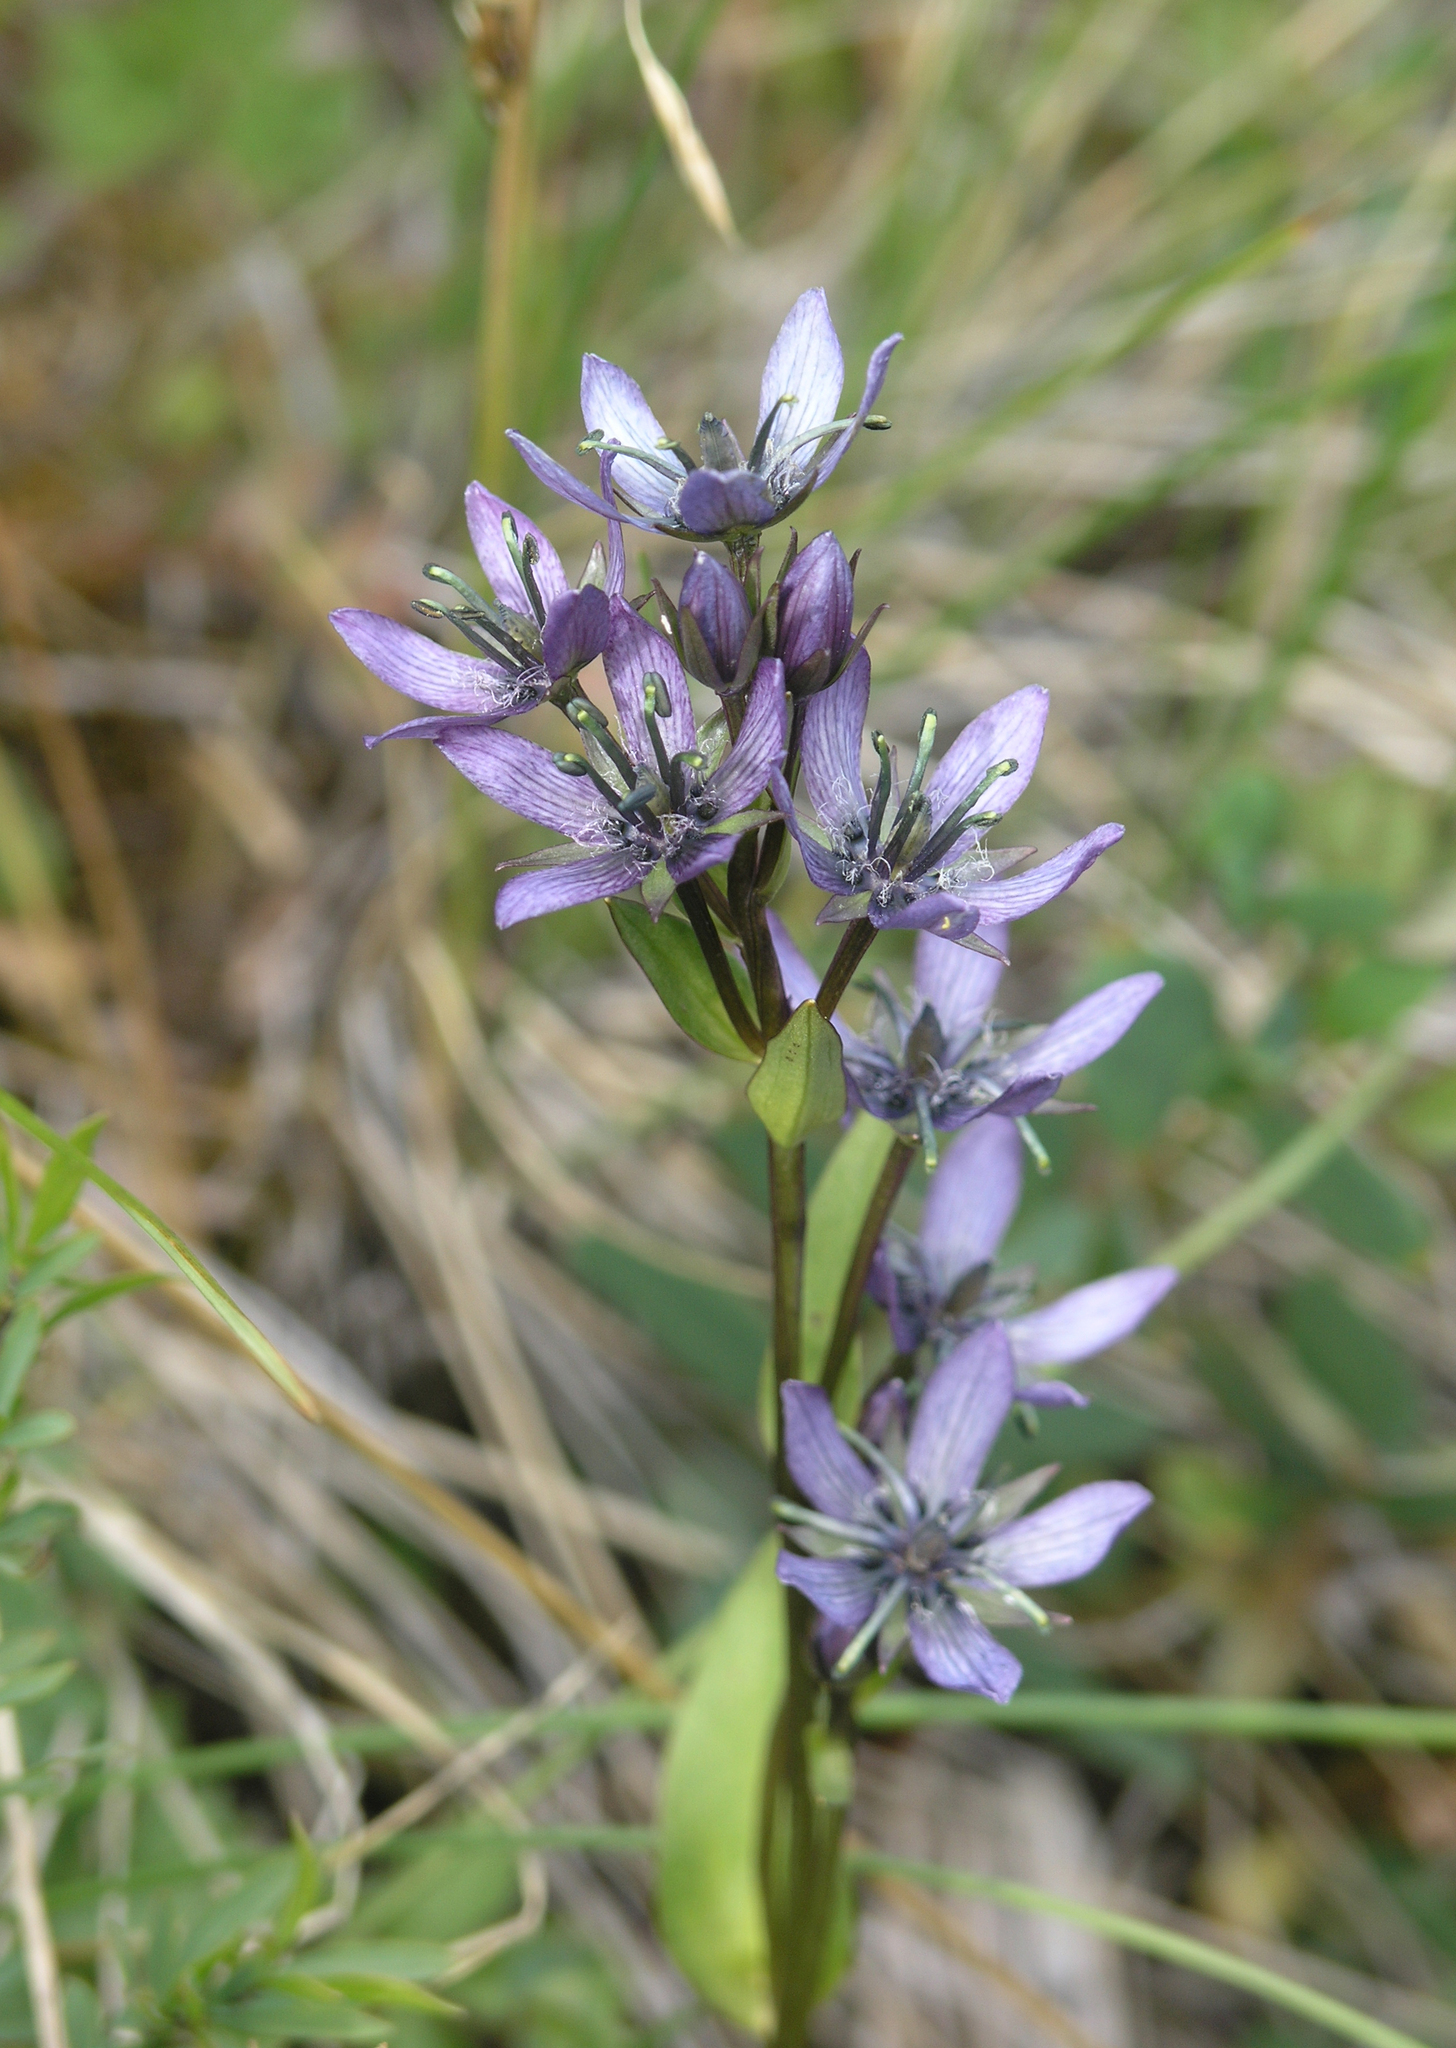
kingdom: Plantae
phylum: Tracheophyta
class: Magnoliopsida
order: Gentianales
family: Gentianaceae
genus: Swertia
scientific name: Swertia obtusa
